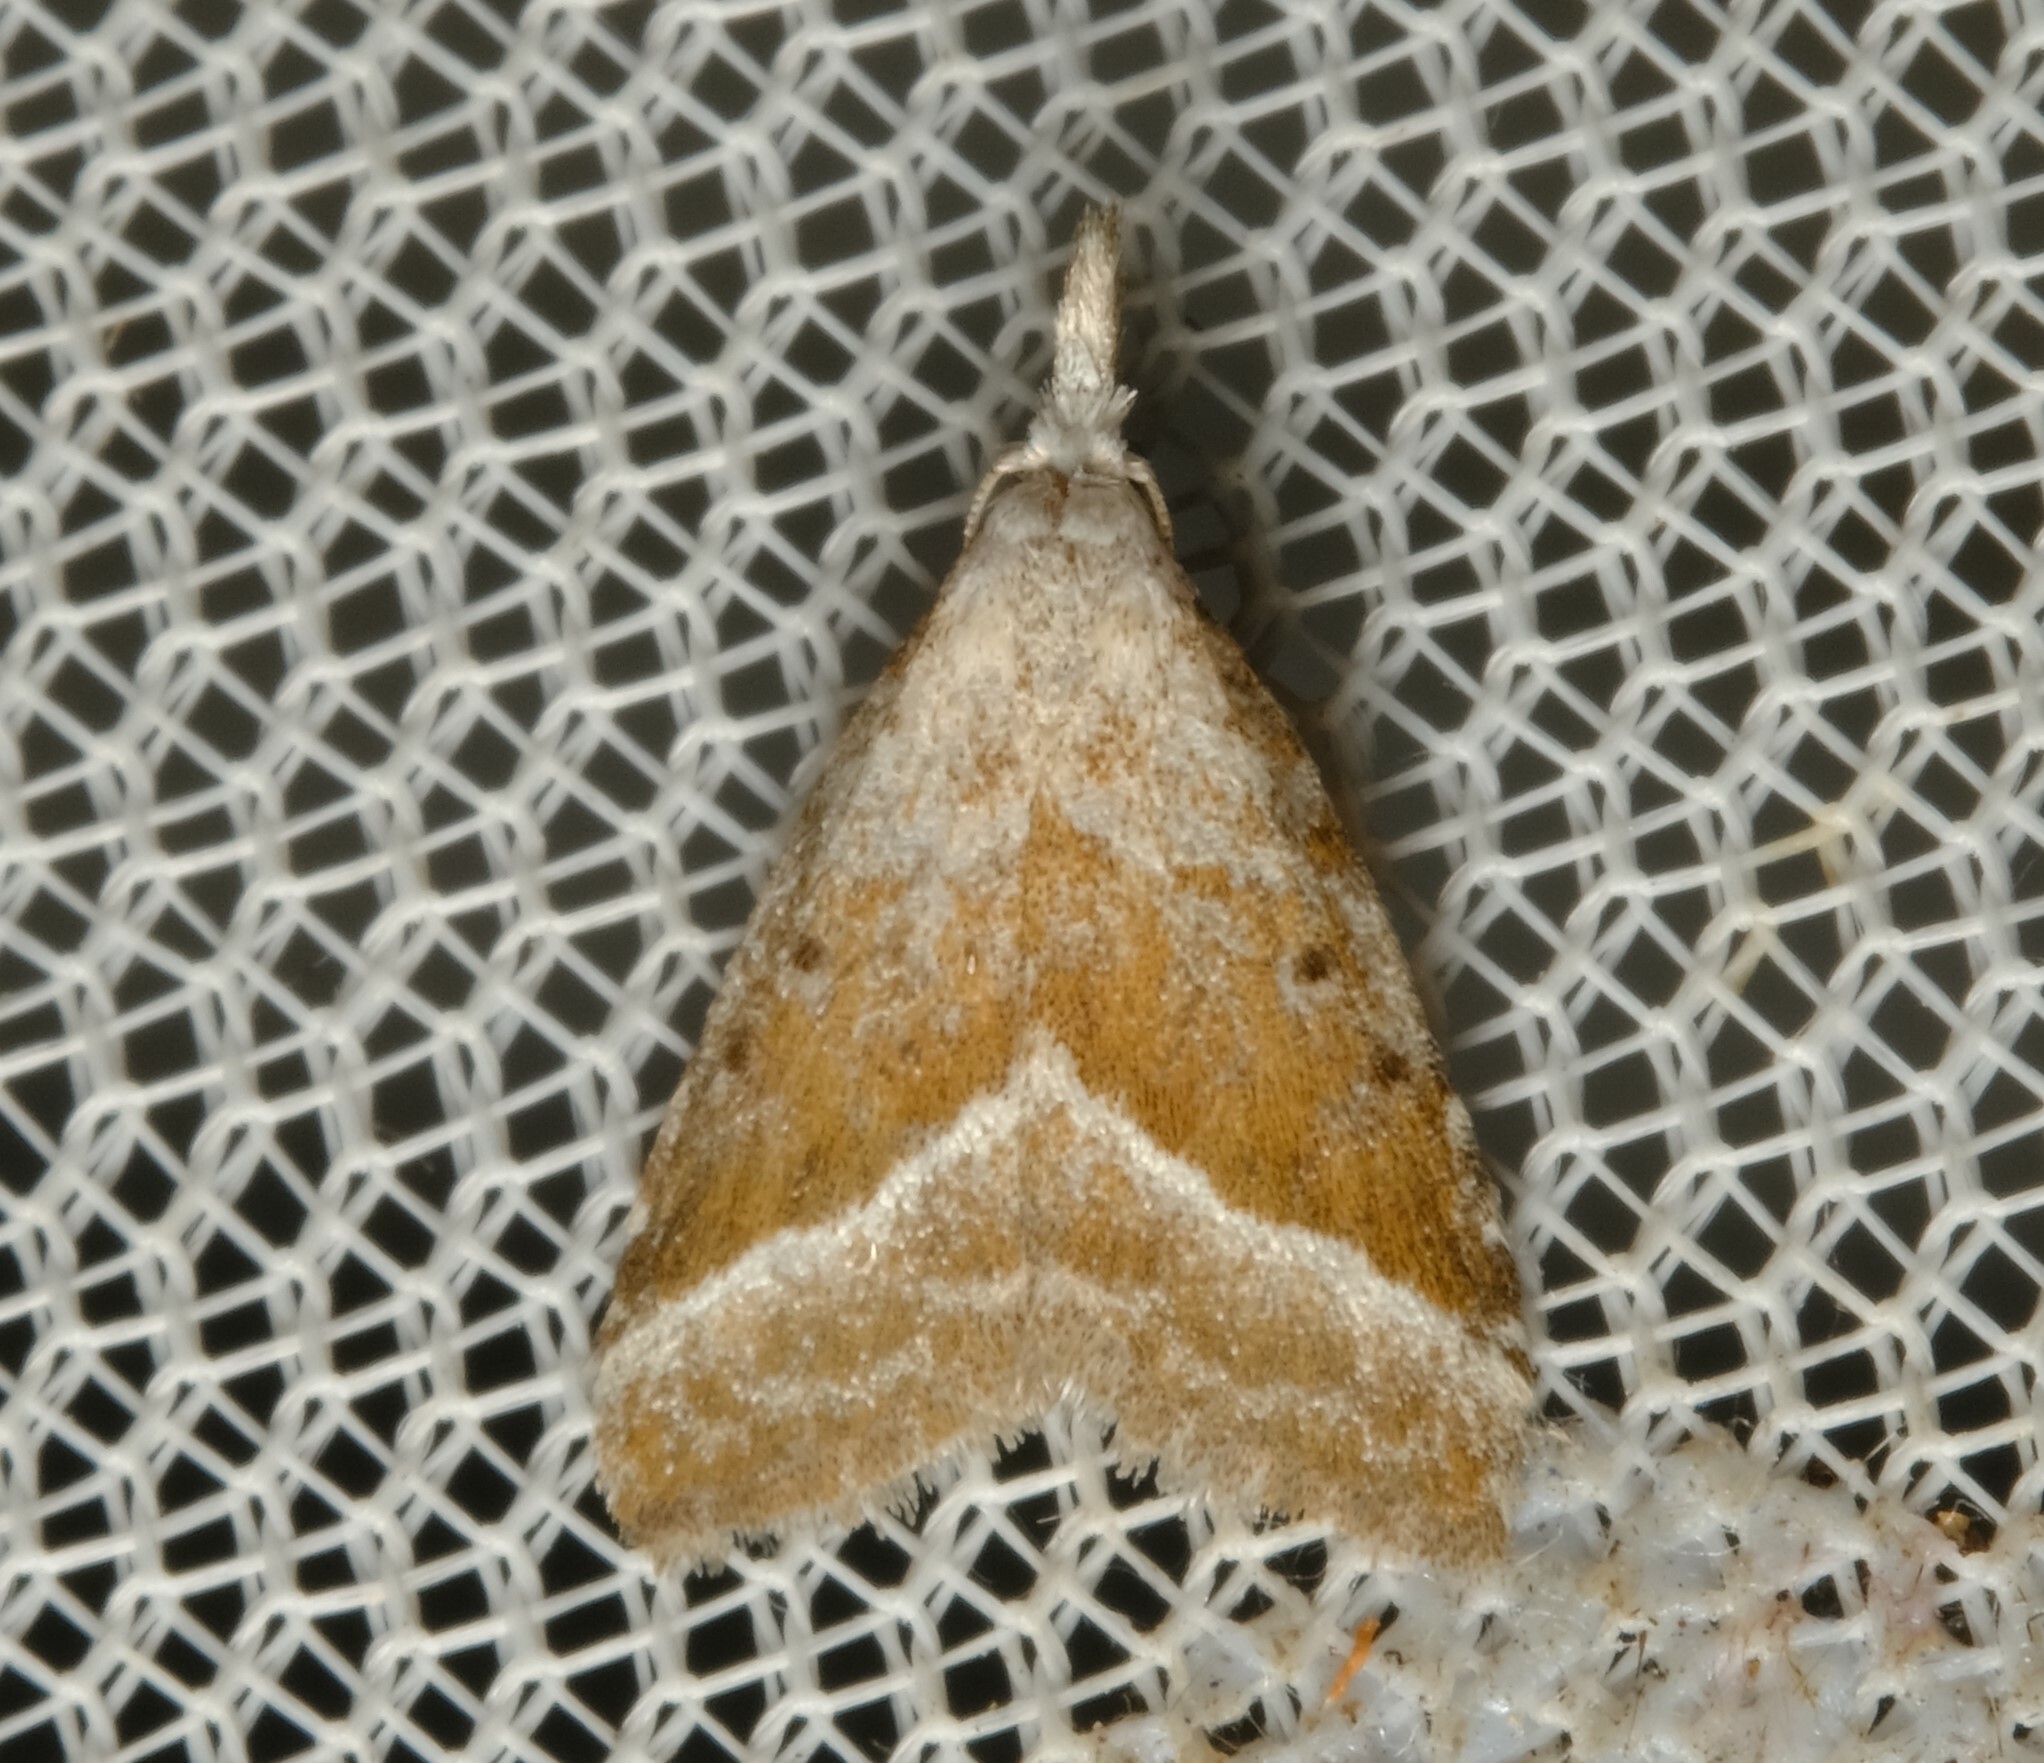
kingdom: Animalia
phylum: Arthropoda
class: Insecta
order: Lepidoptera
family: Nolidae
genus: Nola
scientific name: Nola tholera
